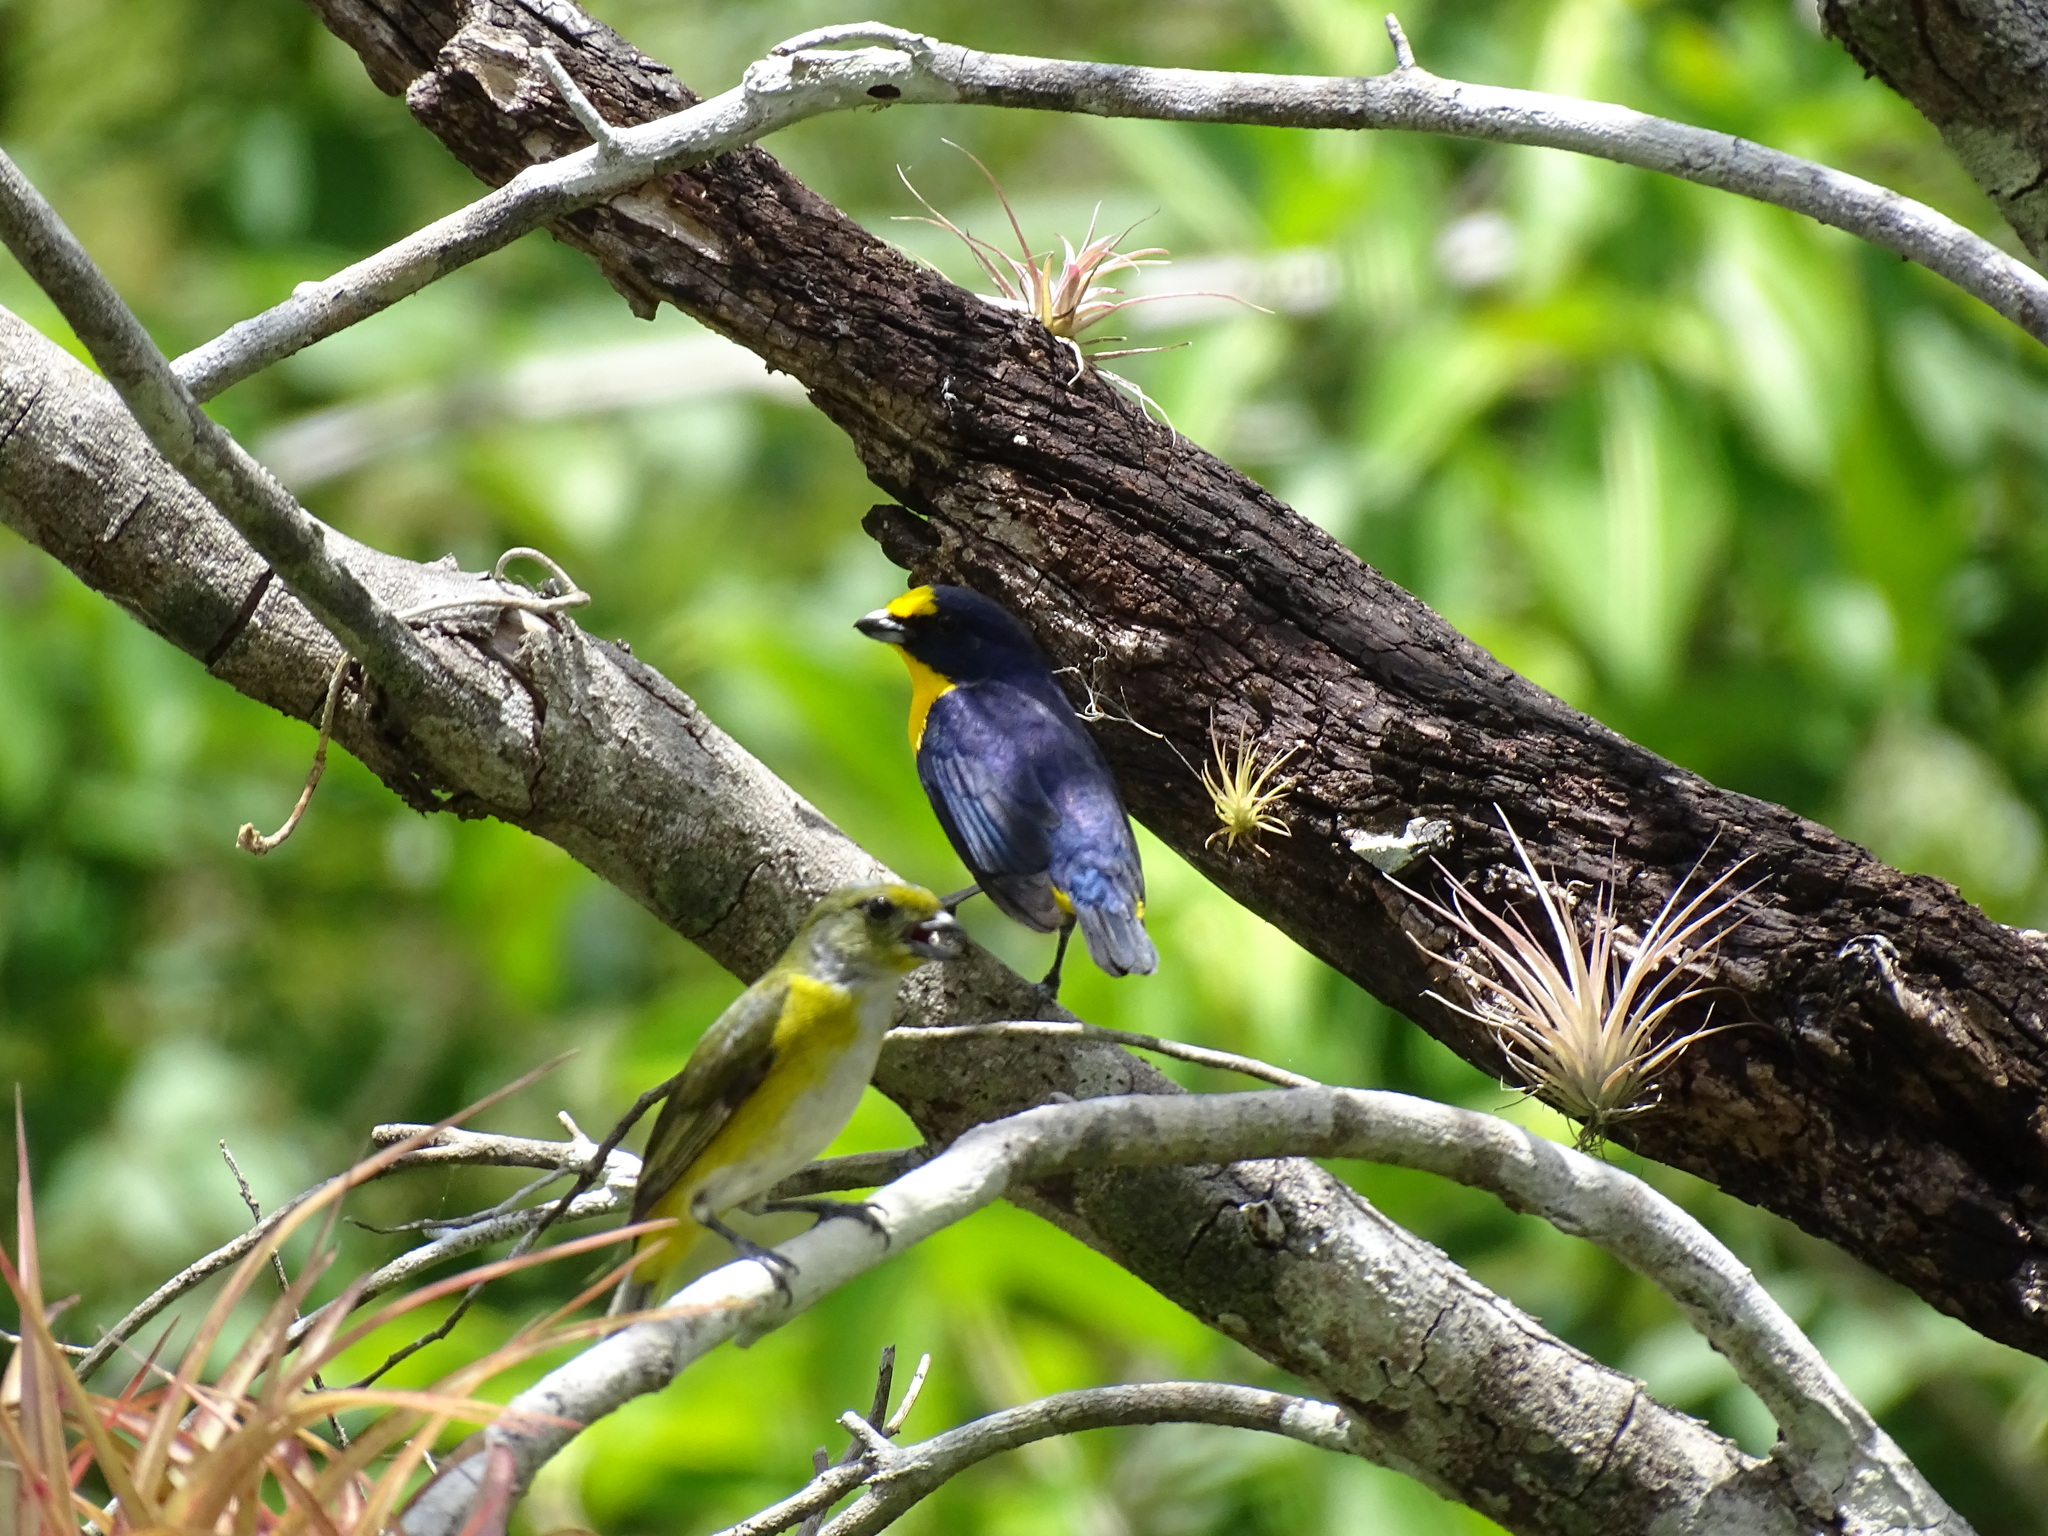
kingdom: Animalia
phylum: Chordata
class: Aves
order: Passeriformes
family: Fringillidae
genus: Euphonia
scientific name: Euphonia hirundinacea
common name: Yellow-throated euphonia
